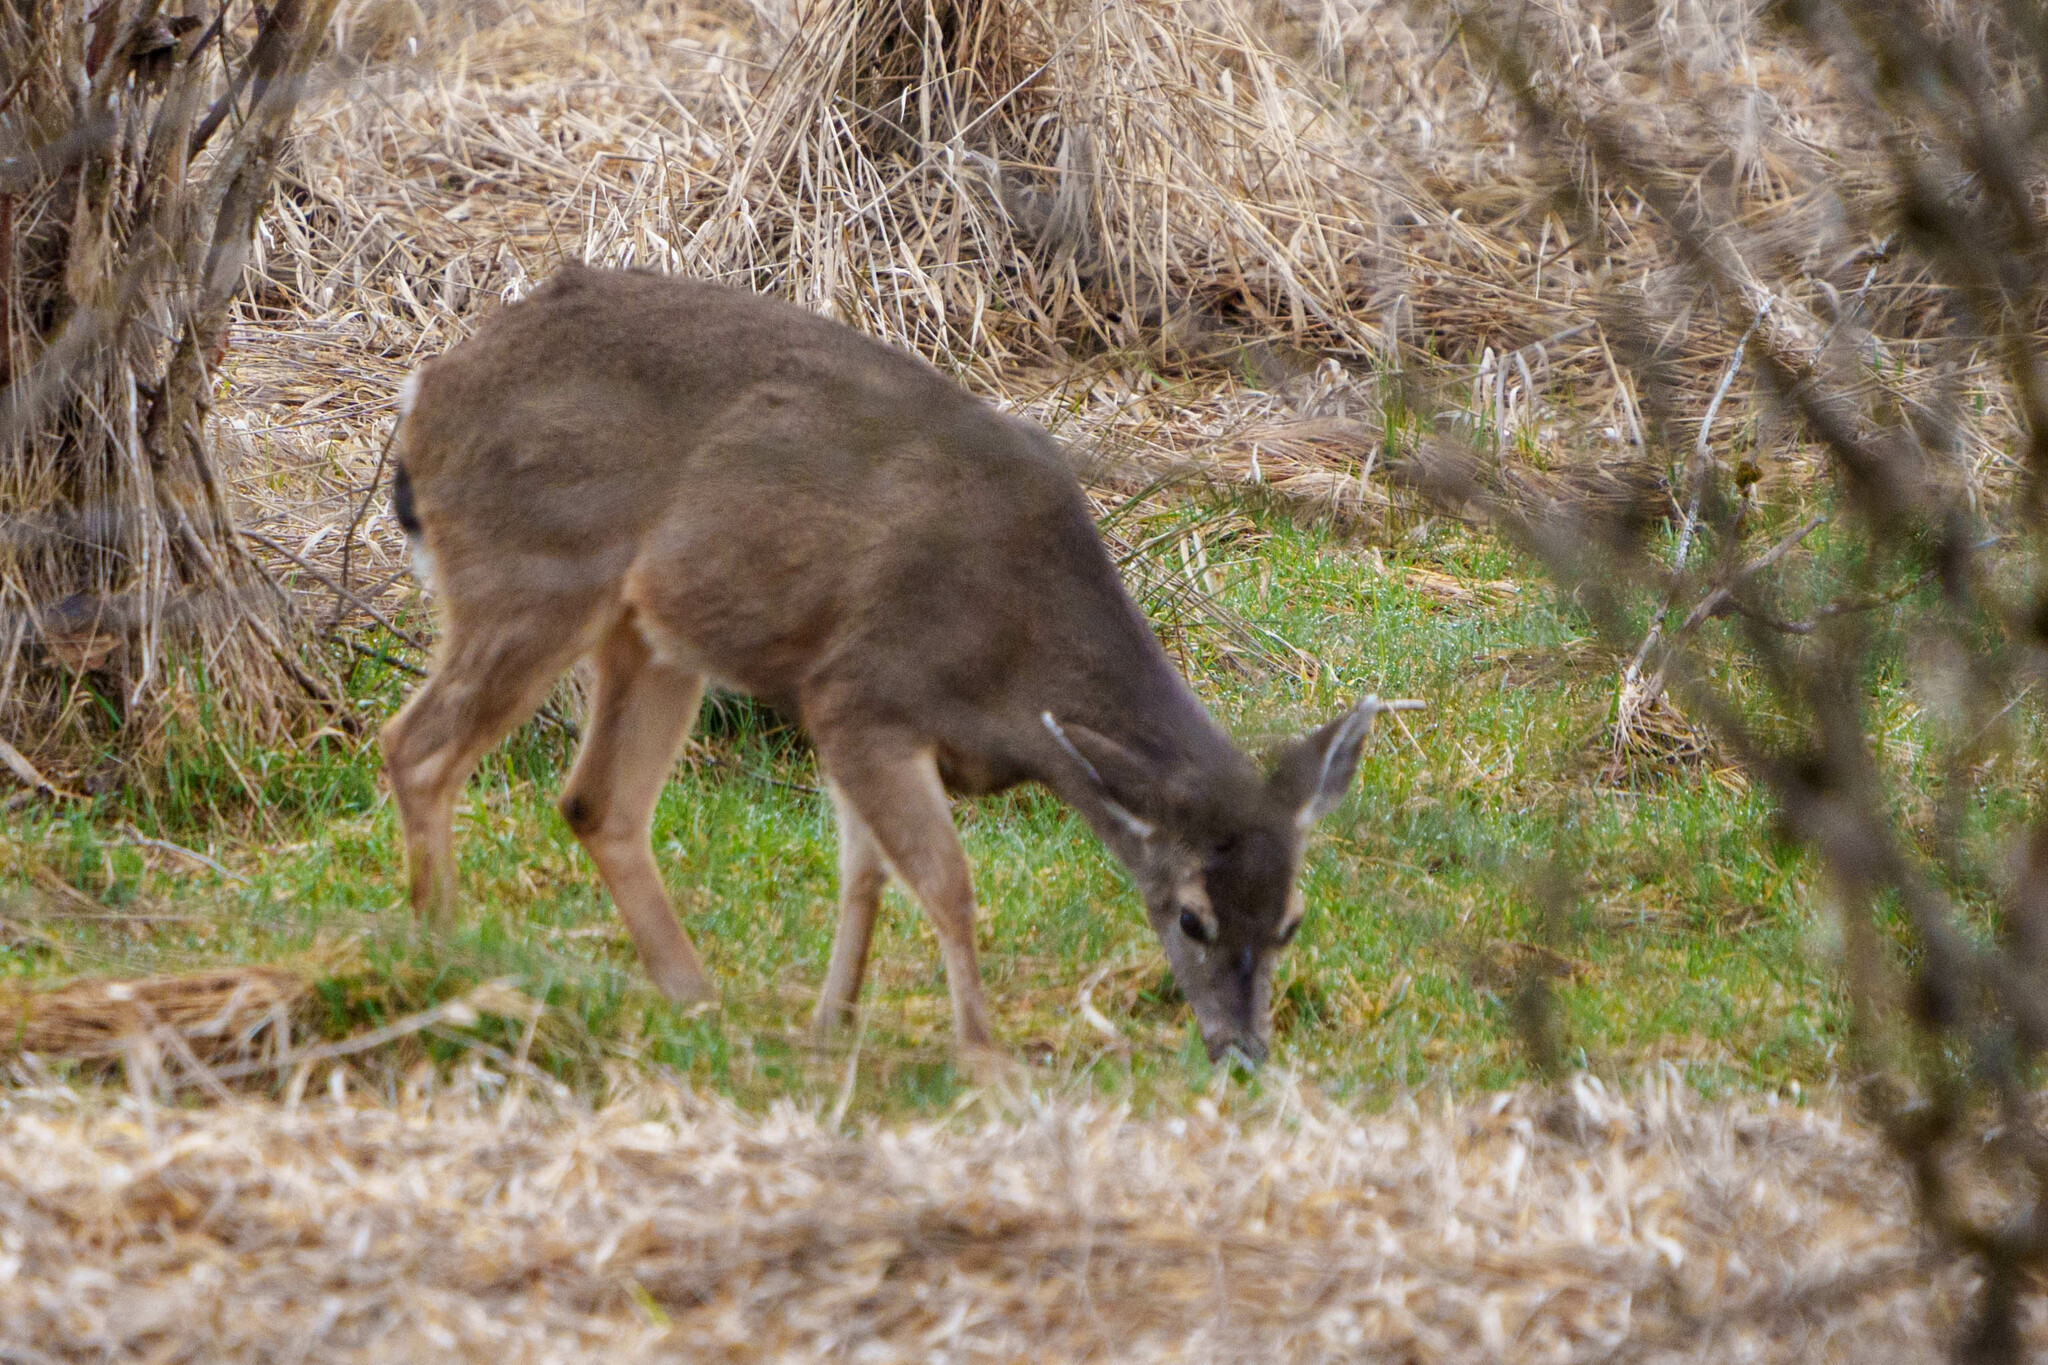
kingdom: Animalia
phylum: Chordata
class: Mammalia
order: Artiodactyla
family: Cervidae
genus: Odocoileus
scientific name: Odocoileus hemionus
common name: Mule deer
